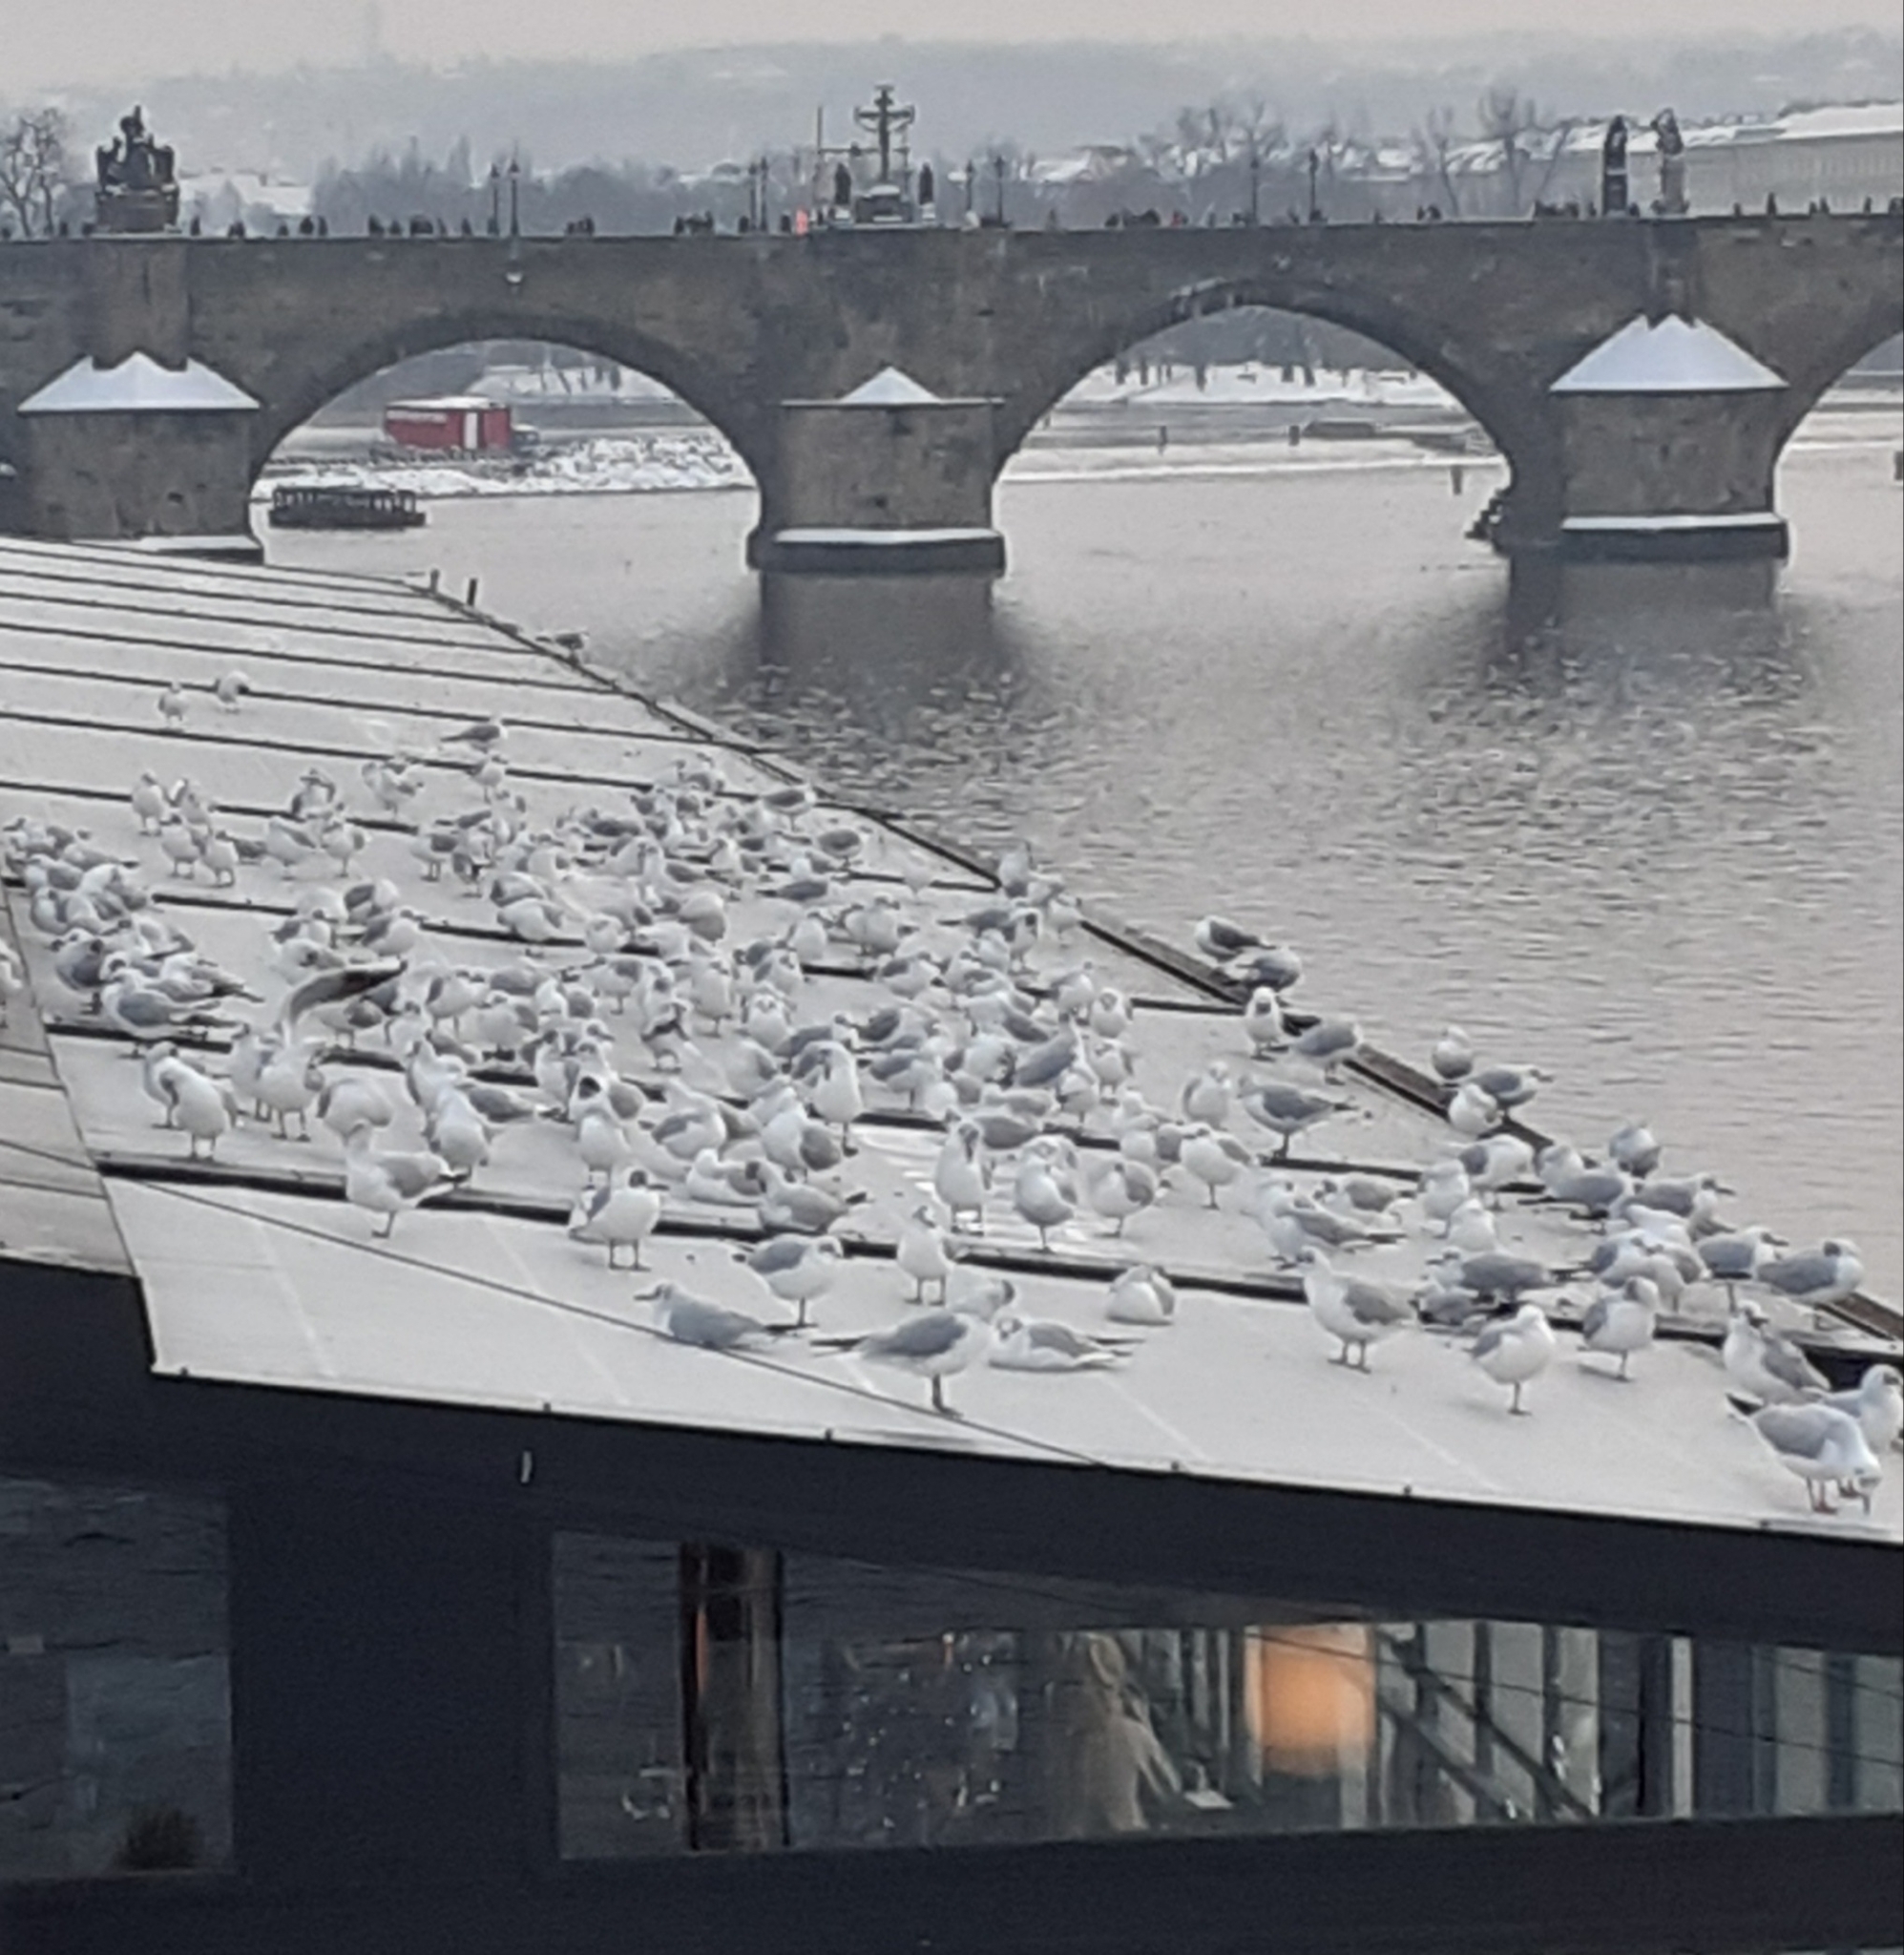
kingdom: Animalia
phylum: Chordata
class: Aves
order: Charadriiformes
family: Laridae
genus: Chroicocephalus
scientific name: Chroicocephalus ridibundus
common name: Black-headed gull
